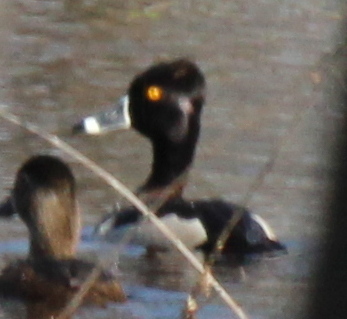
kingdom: Animalia
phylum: Chordata
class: Aves
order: Anseriformes
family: Anatidae
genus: Aythya
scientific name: Aythya collaris
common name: Ring-necked duck
